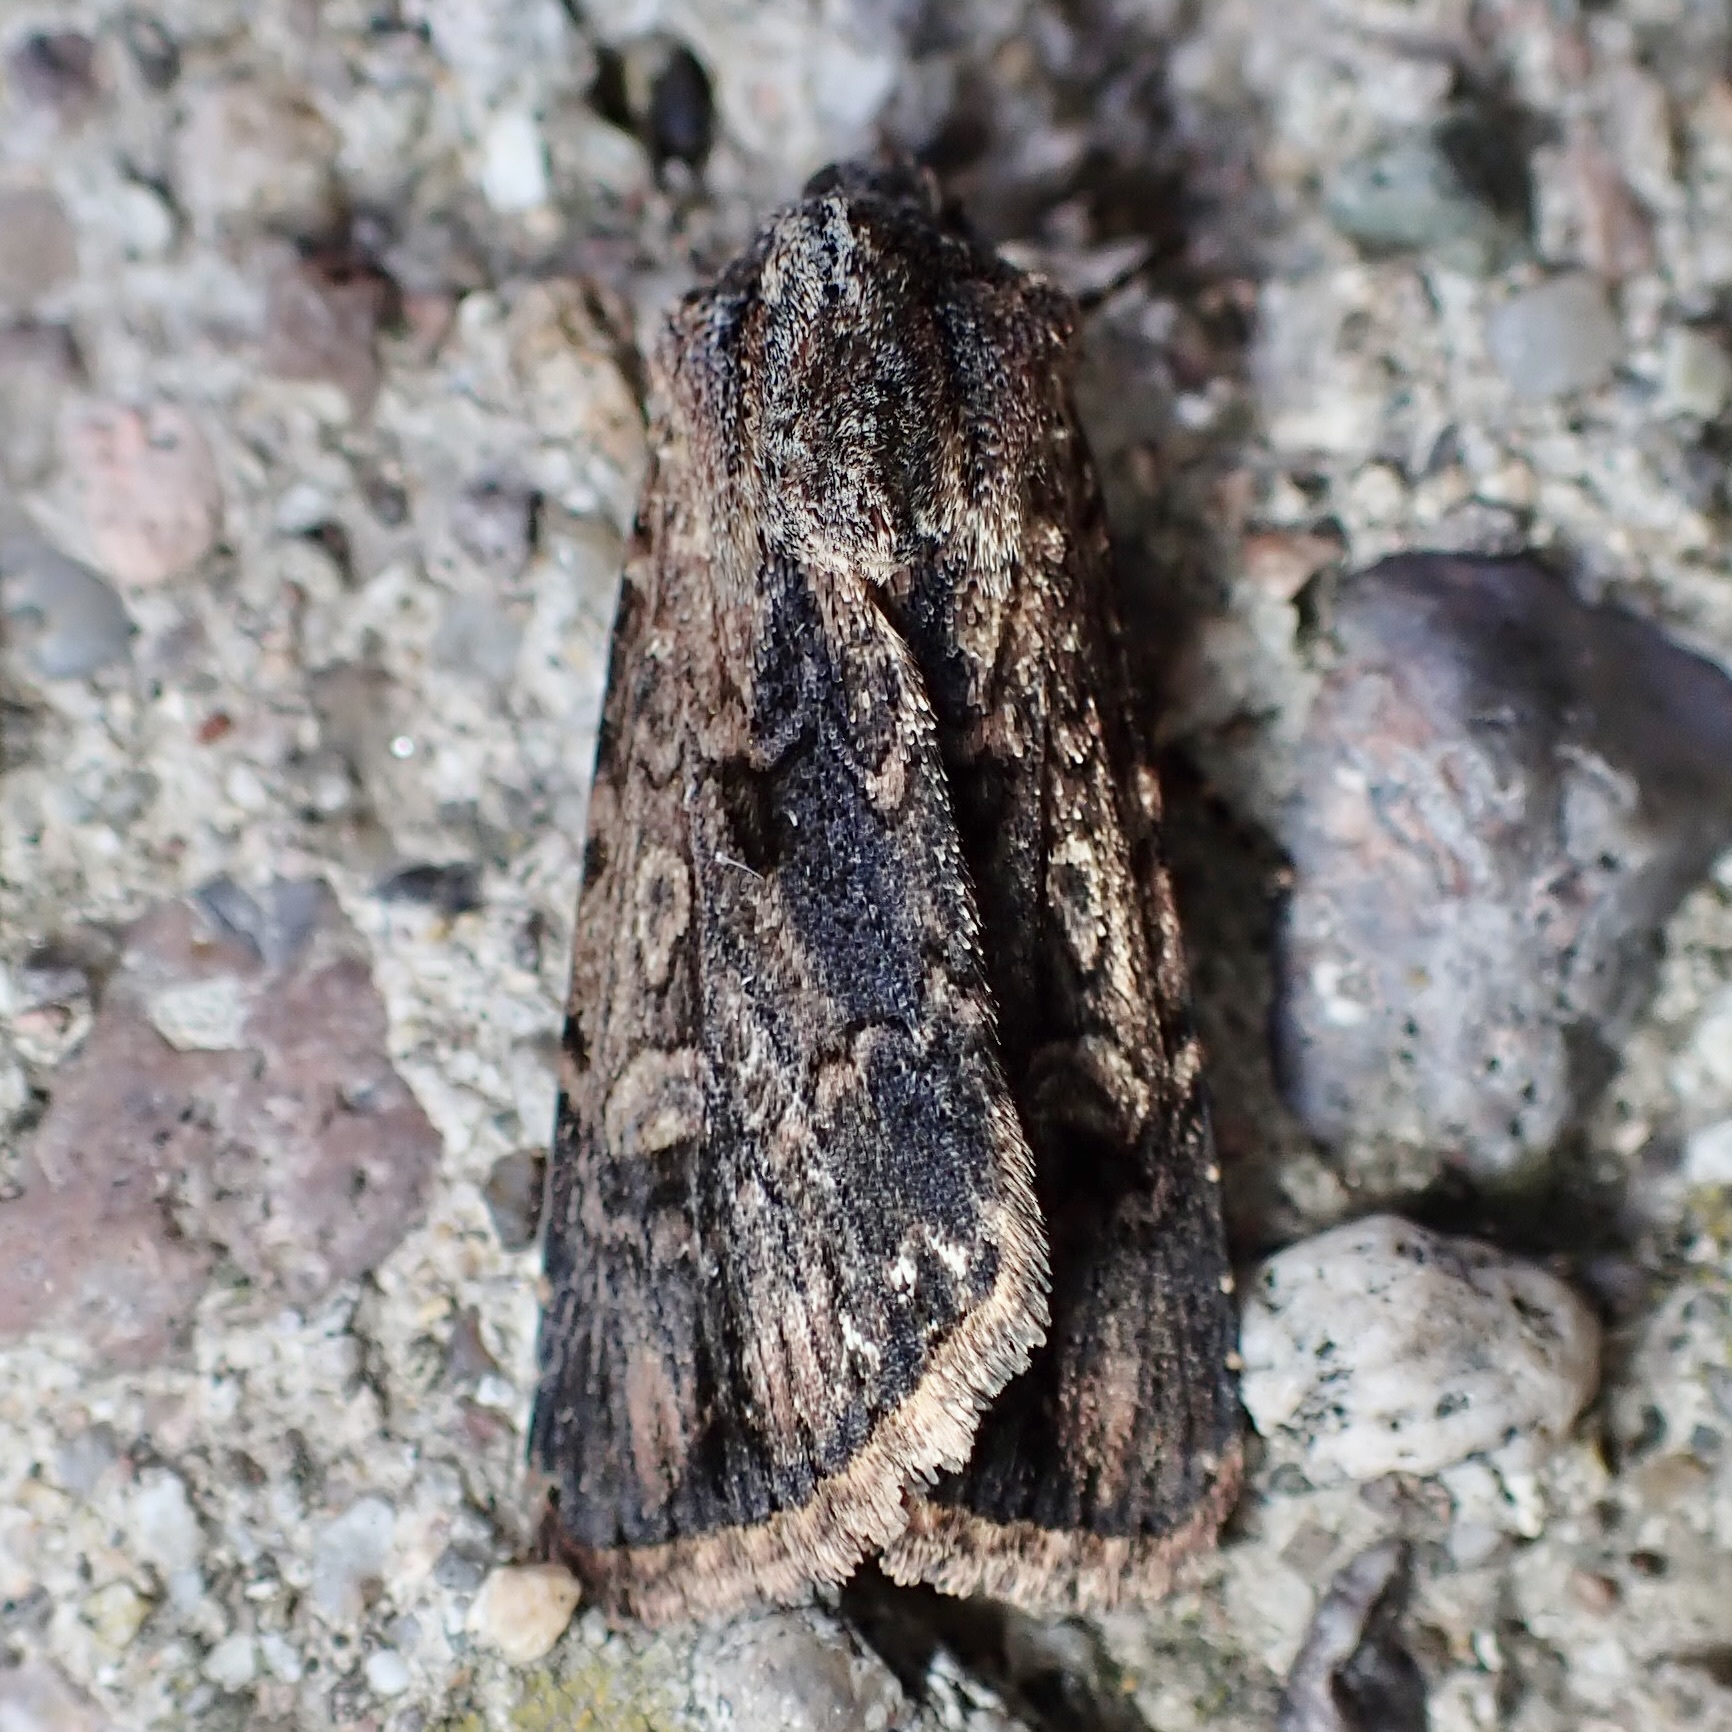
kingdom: Animalia
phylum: Arthropoda
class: Insecta
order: Lepidoptera
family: Noctuidae
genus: Dichagyris
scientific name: Dichagyris proclivis
